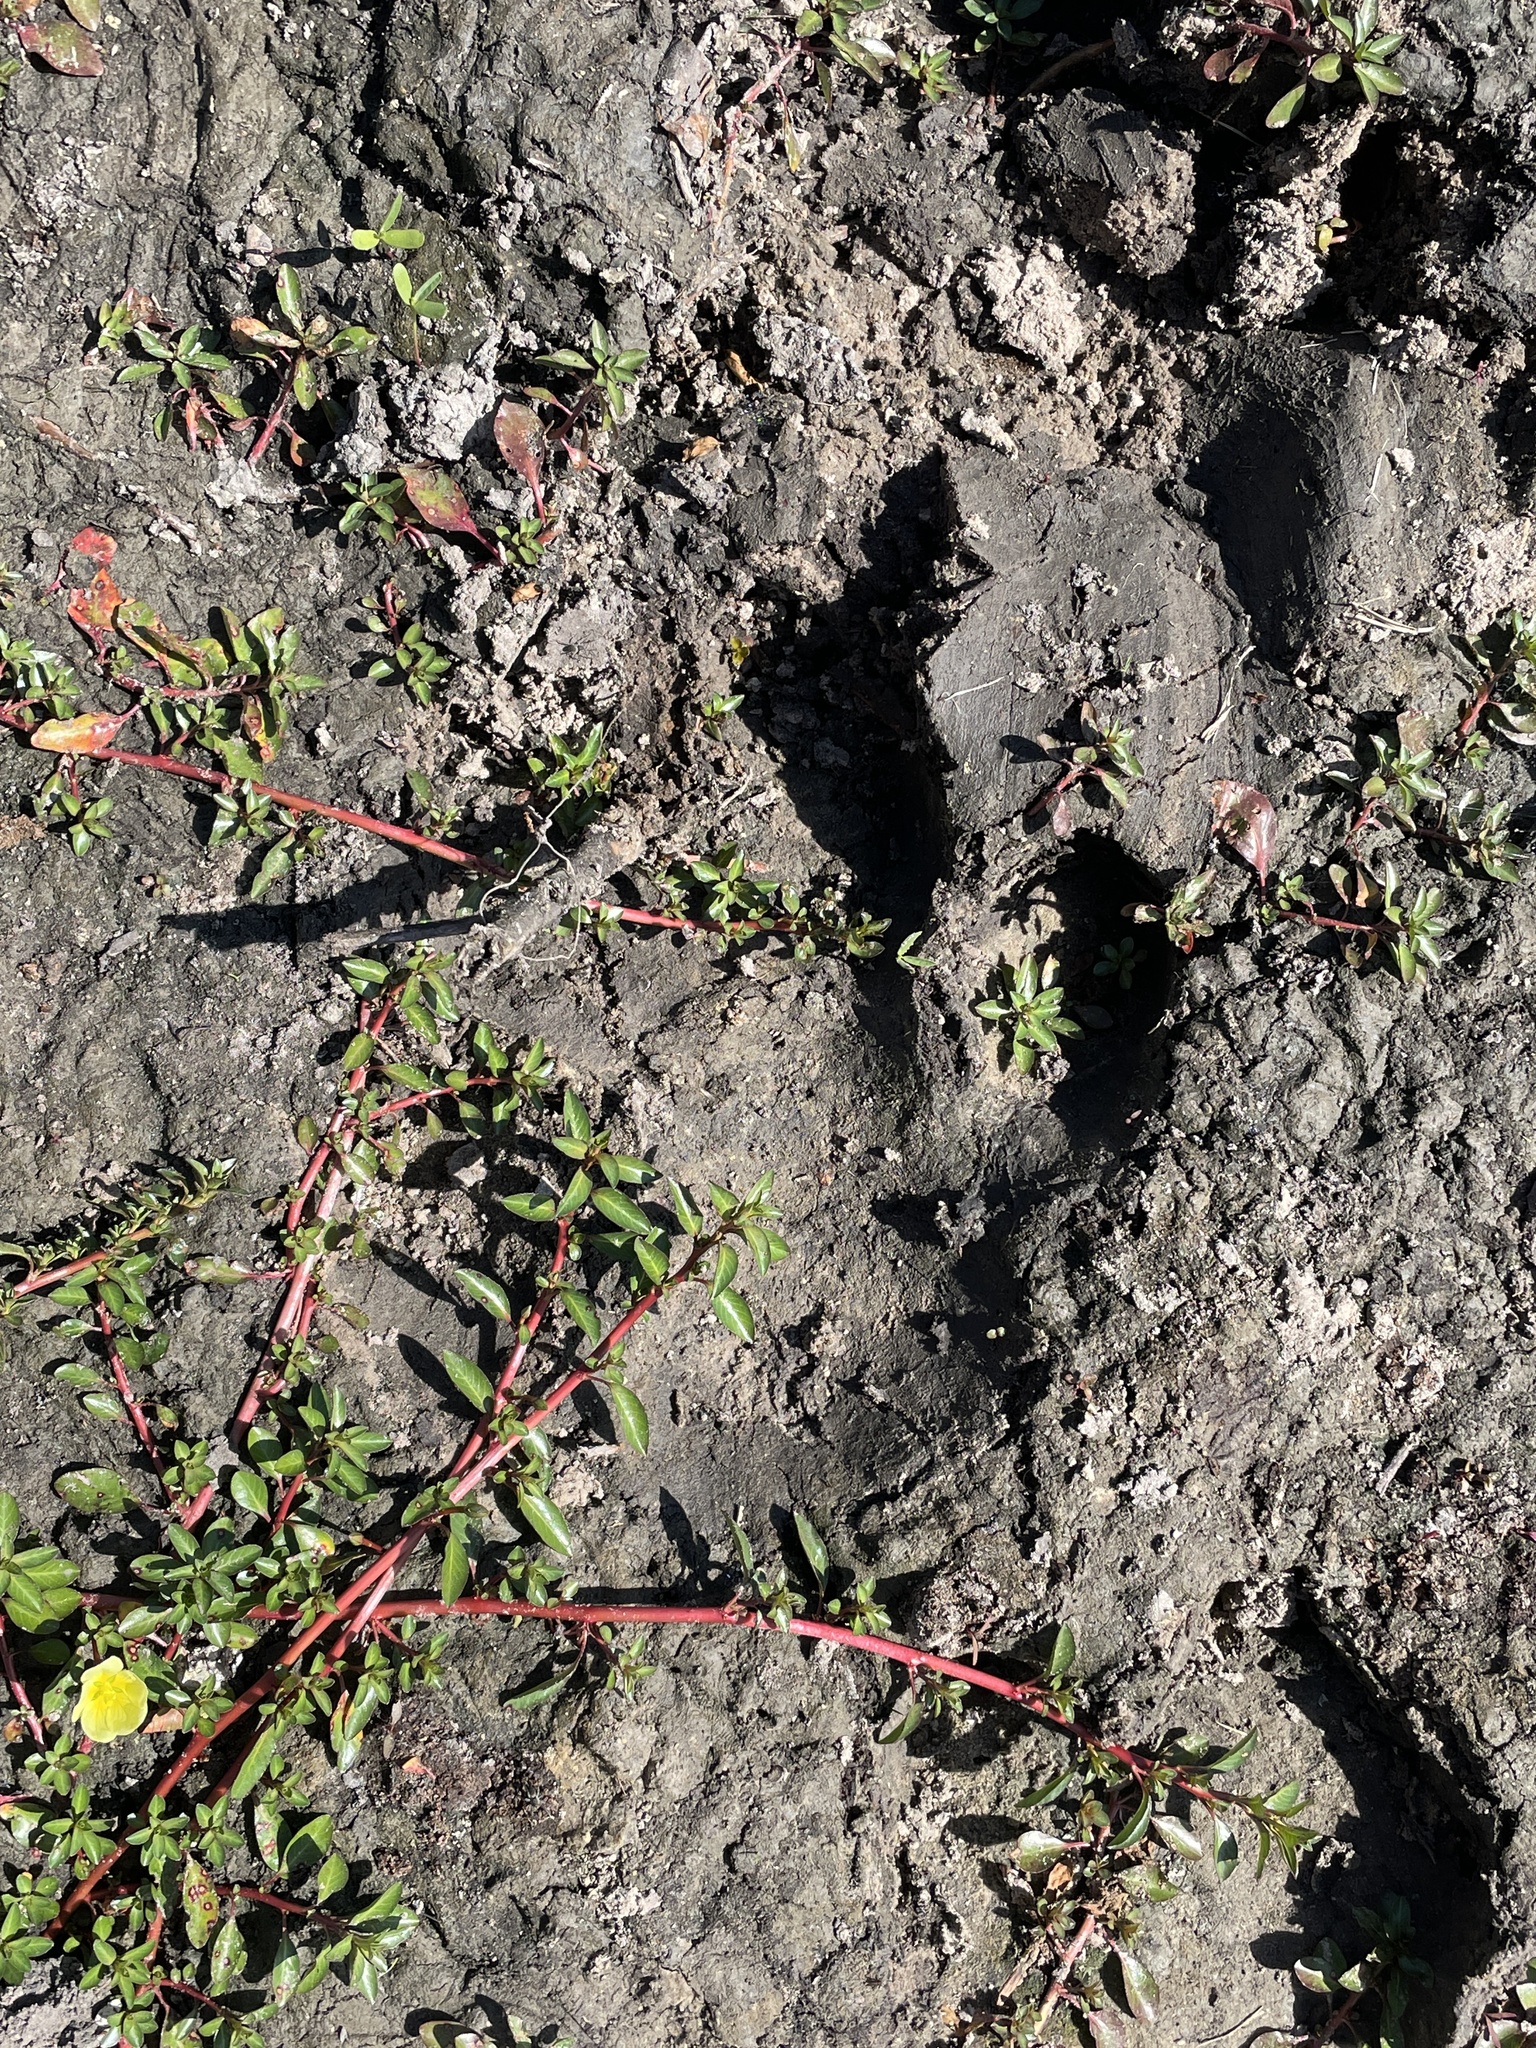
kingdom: Animalia
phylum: Chordata
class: Mammalia
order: Artiodactyla
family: Hippopotamidae
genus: Hippopotamus
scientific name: Hippopotamus amphibius
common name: Common hippopotamus
